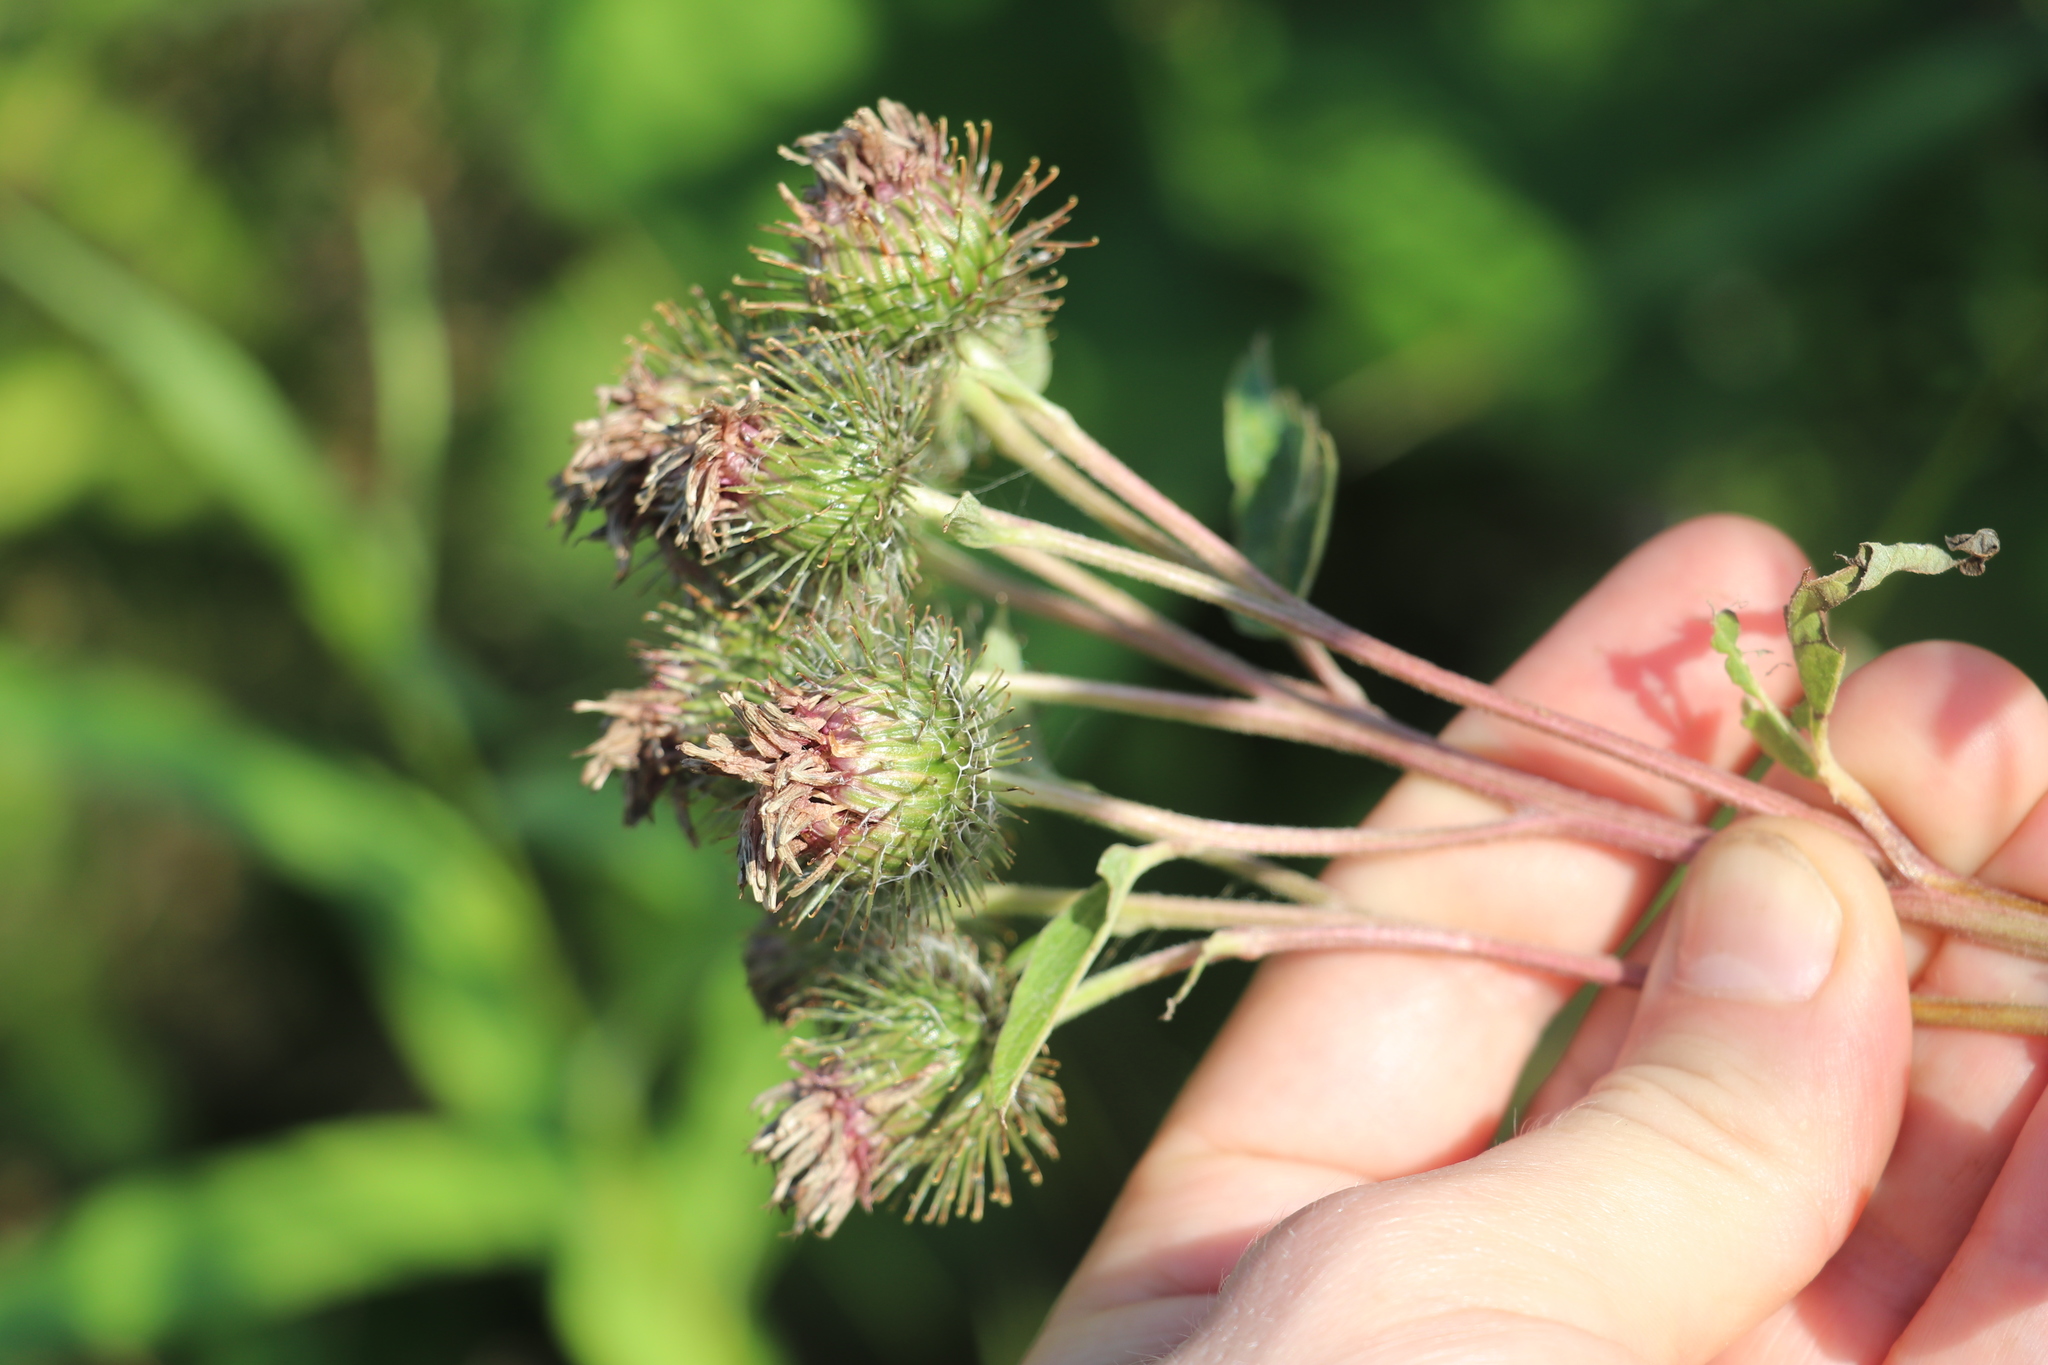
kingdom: Plantae
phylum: Tracheophyta
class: Magnoliopsida
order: Asterales
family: Asteraceae
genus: Arctium
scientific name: Arctium tomentosum
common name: Woolly burdock
